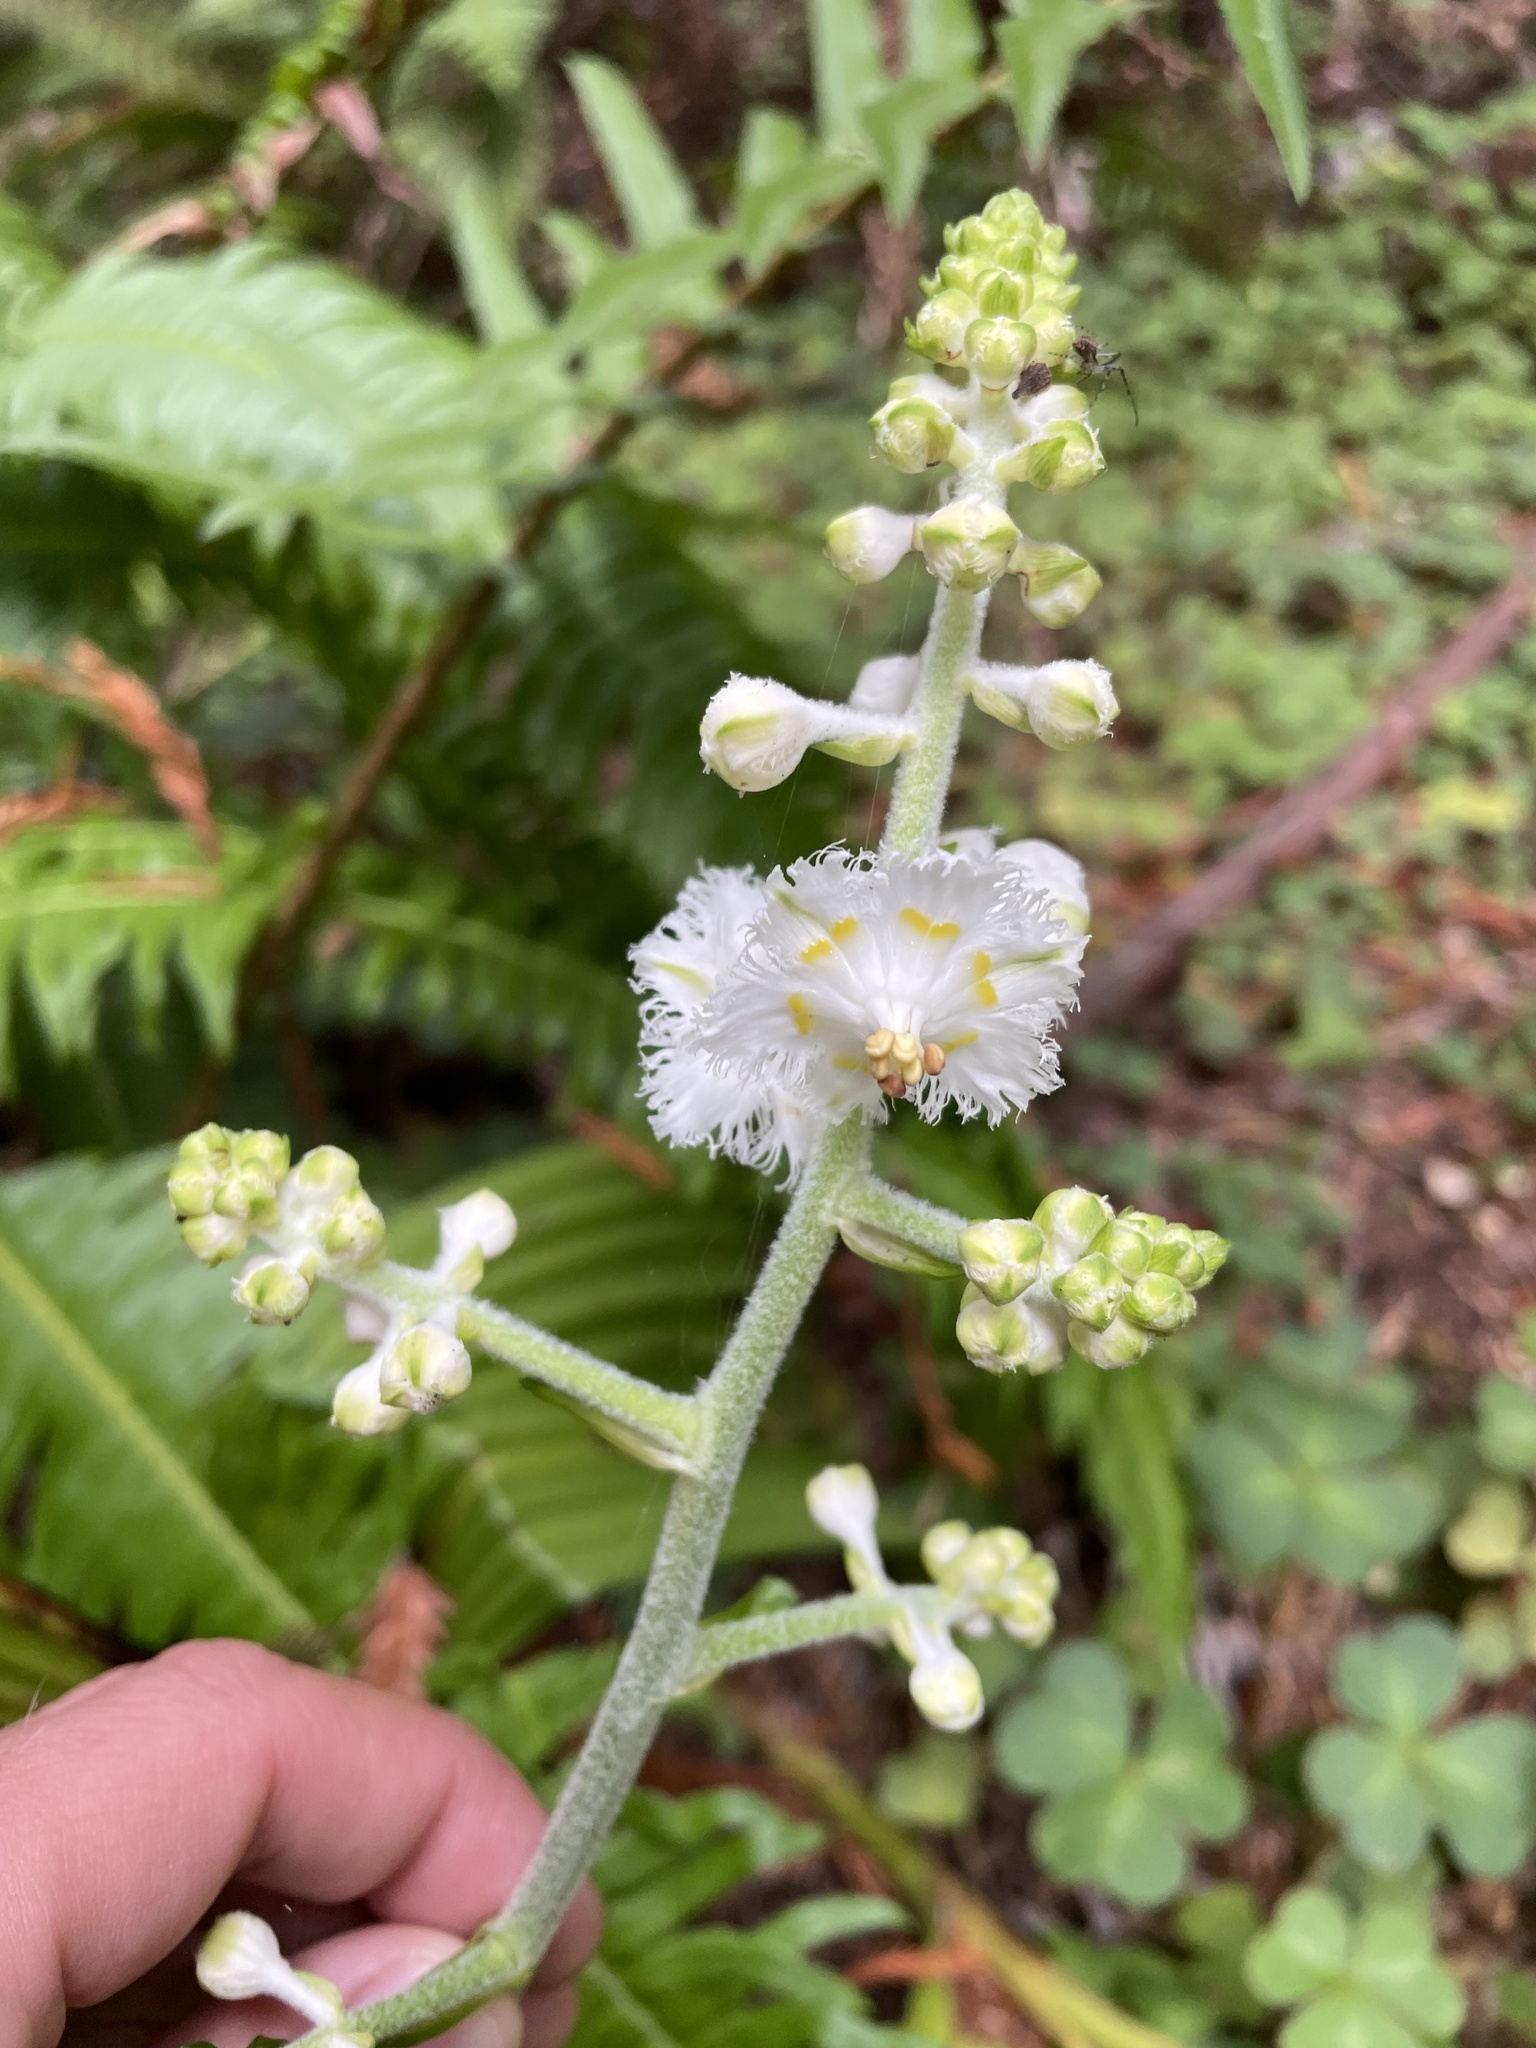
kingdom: Plantae
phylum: Tracheophyta
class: Liliopsida
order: Liliales
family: Melanthiaceae
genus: Veratrum
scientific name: Veratrum fimbriatum
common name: Fringe false hellobore
